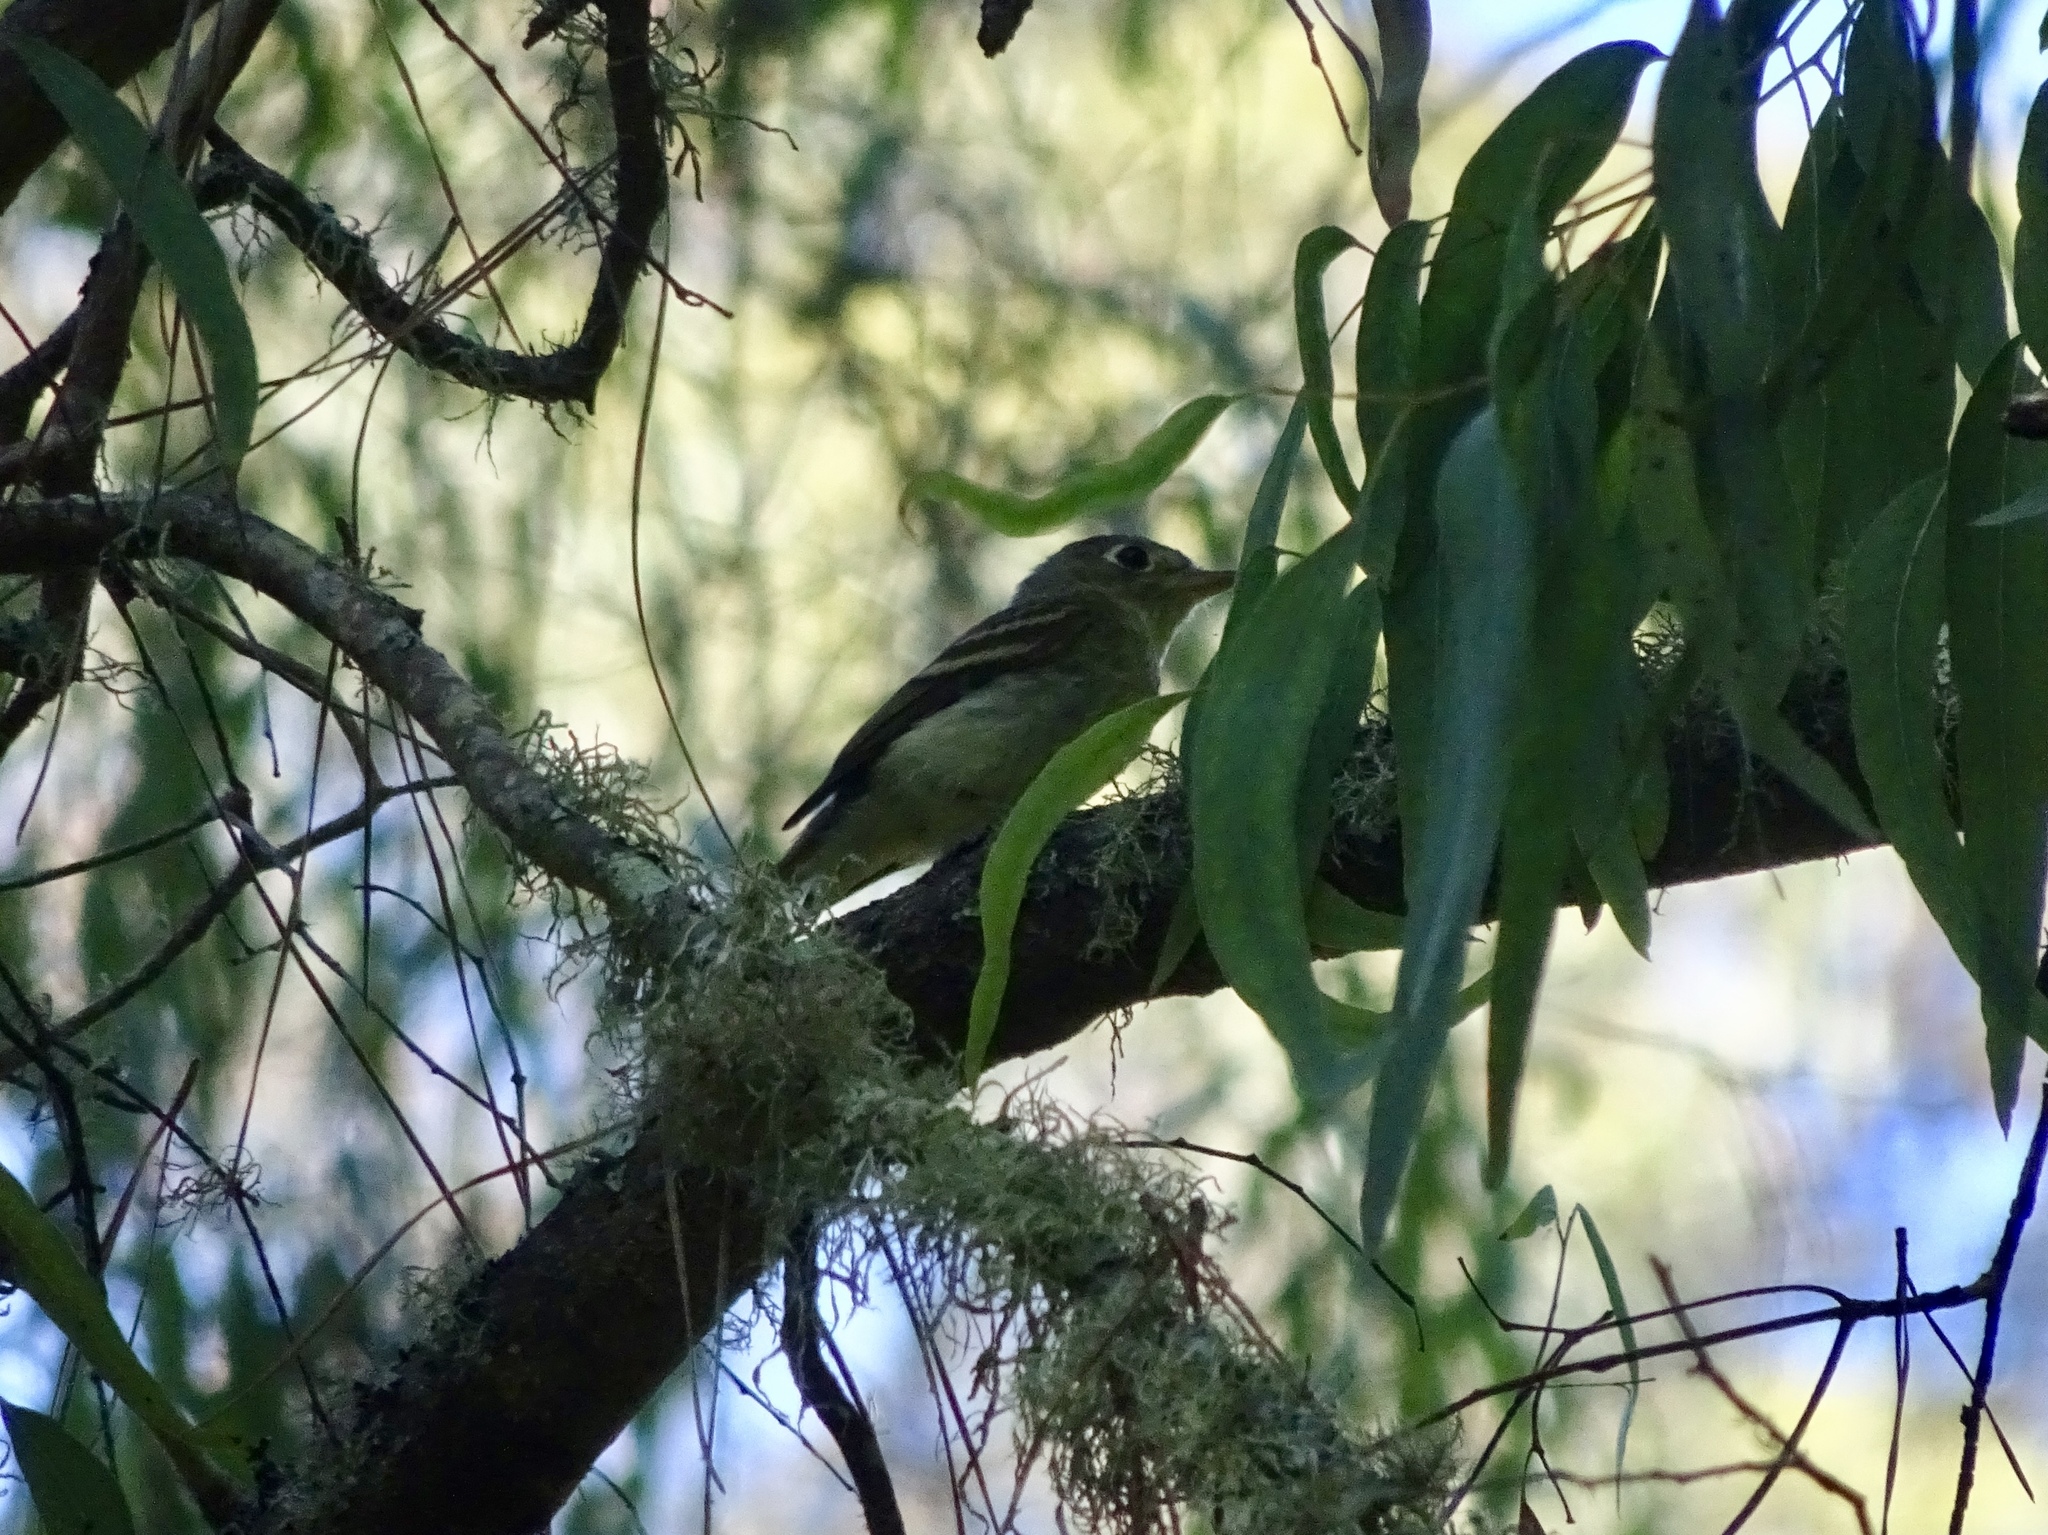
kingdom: Animalia
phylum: Chordata
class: Aves
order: Passeriformes
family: Tyrannidae
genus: Empidonax
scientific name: Empidonax difficilis
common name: Pacific-slope flycatcher
